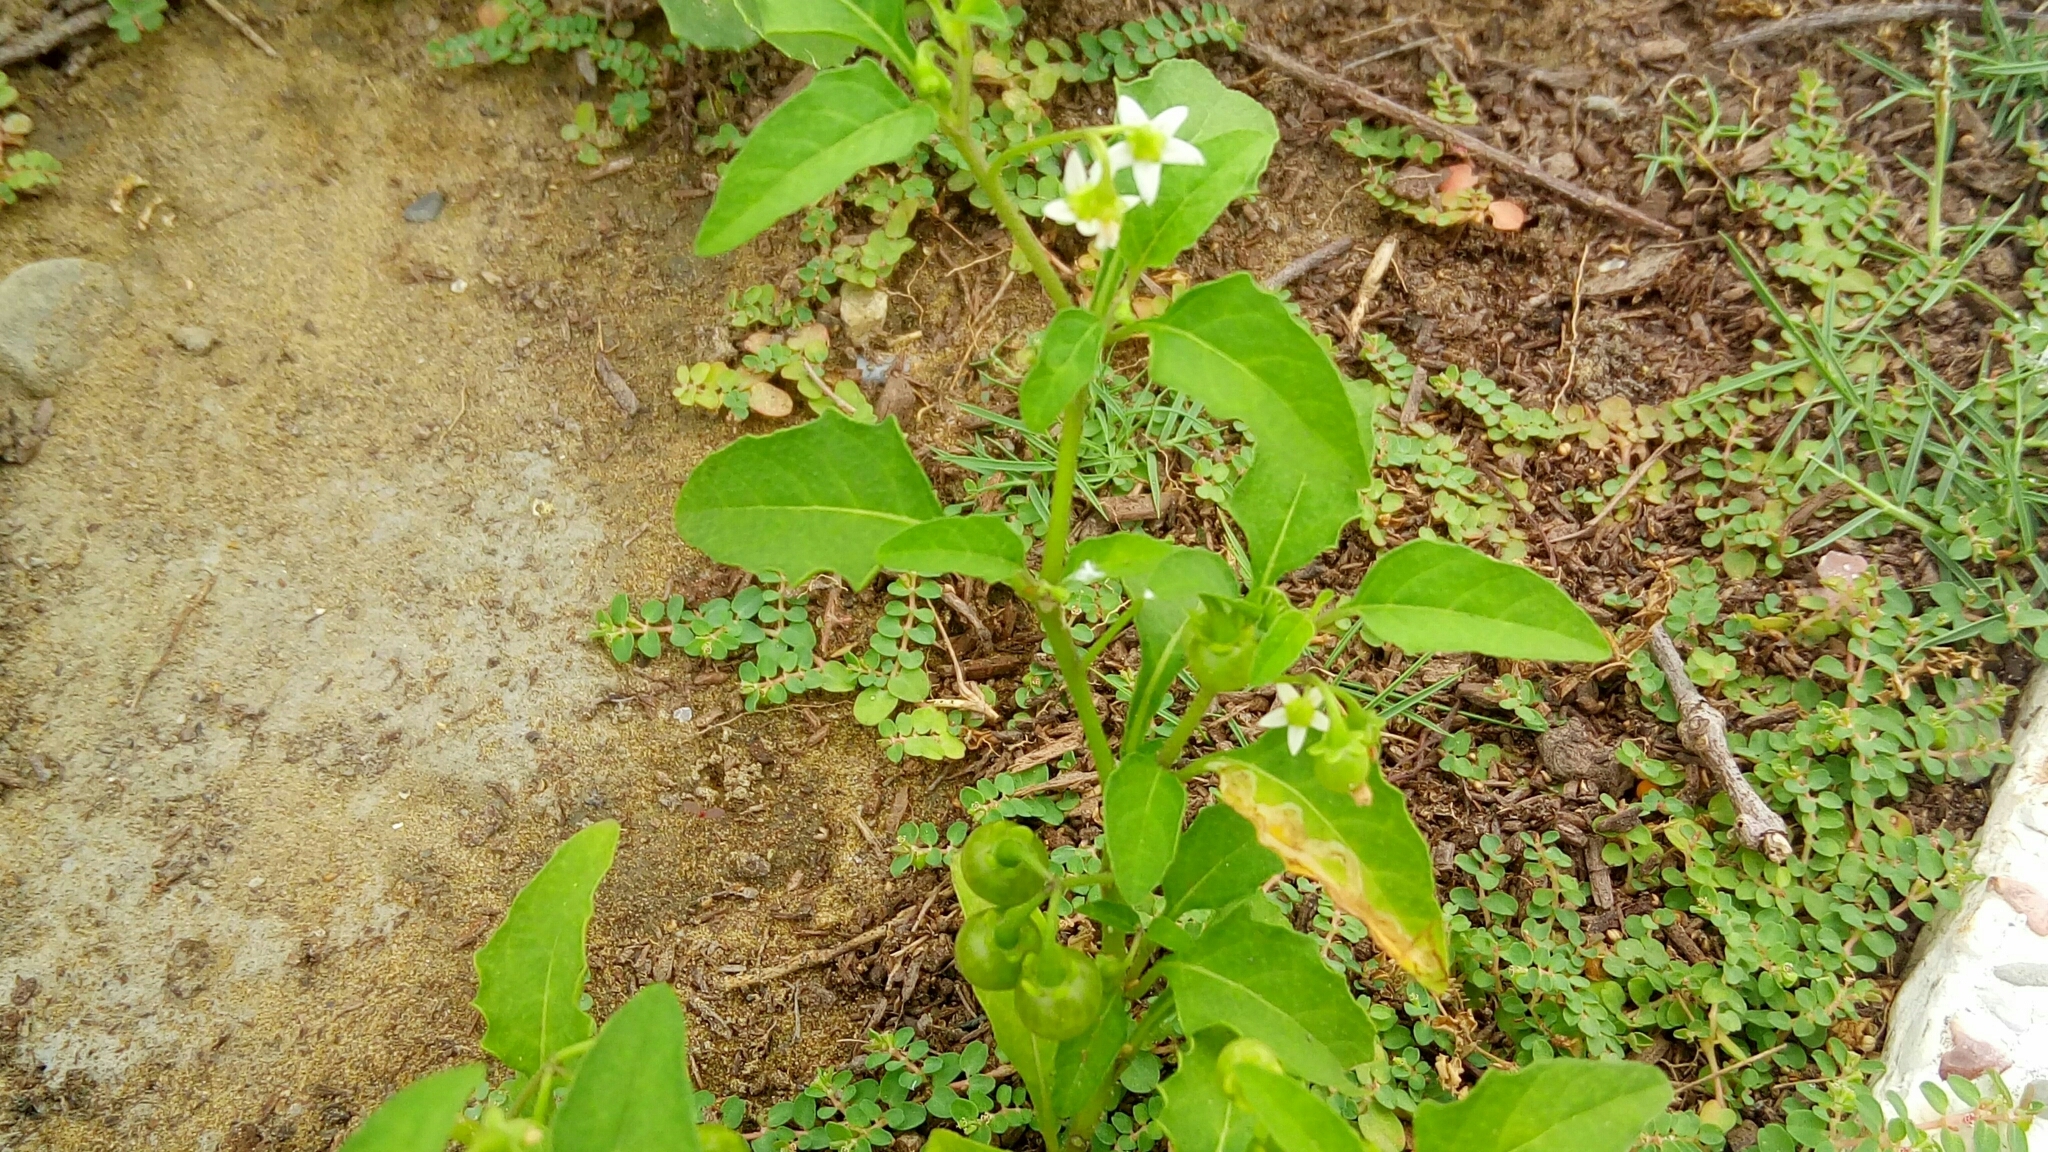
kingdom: Plantae
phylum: Tracheophyta
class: Magnoliopsida
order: Solanales
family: Solanaceae
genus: Solanum
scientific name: Solanum americanum
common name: American black nightshade
